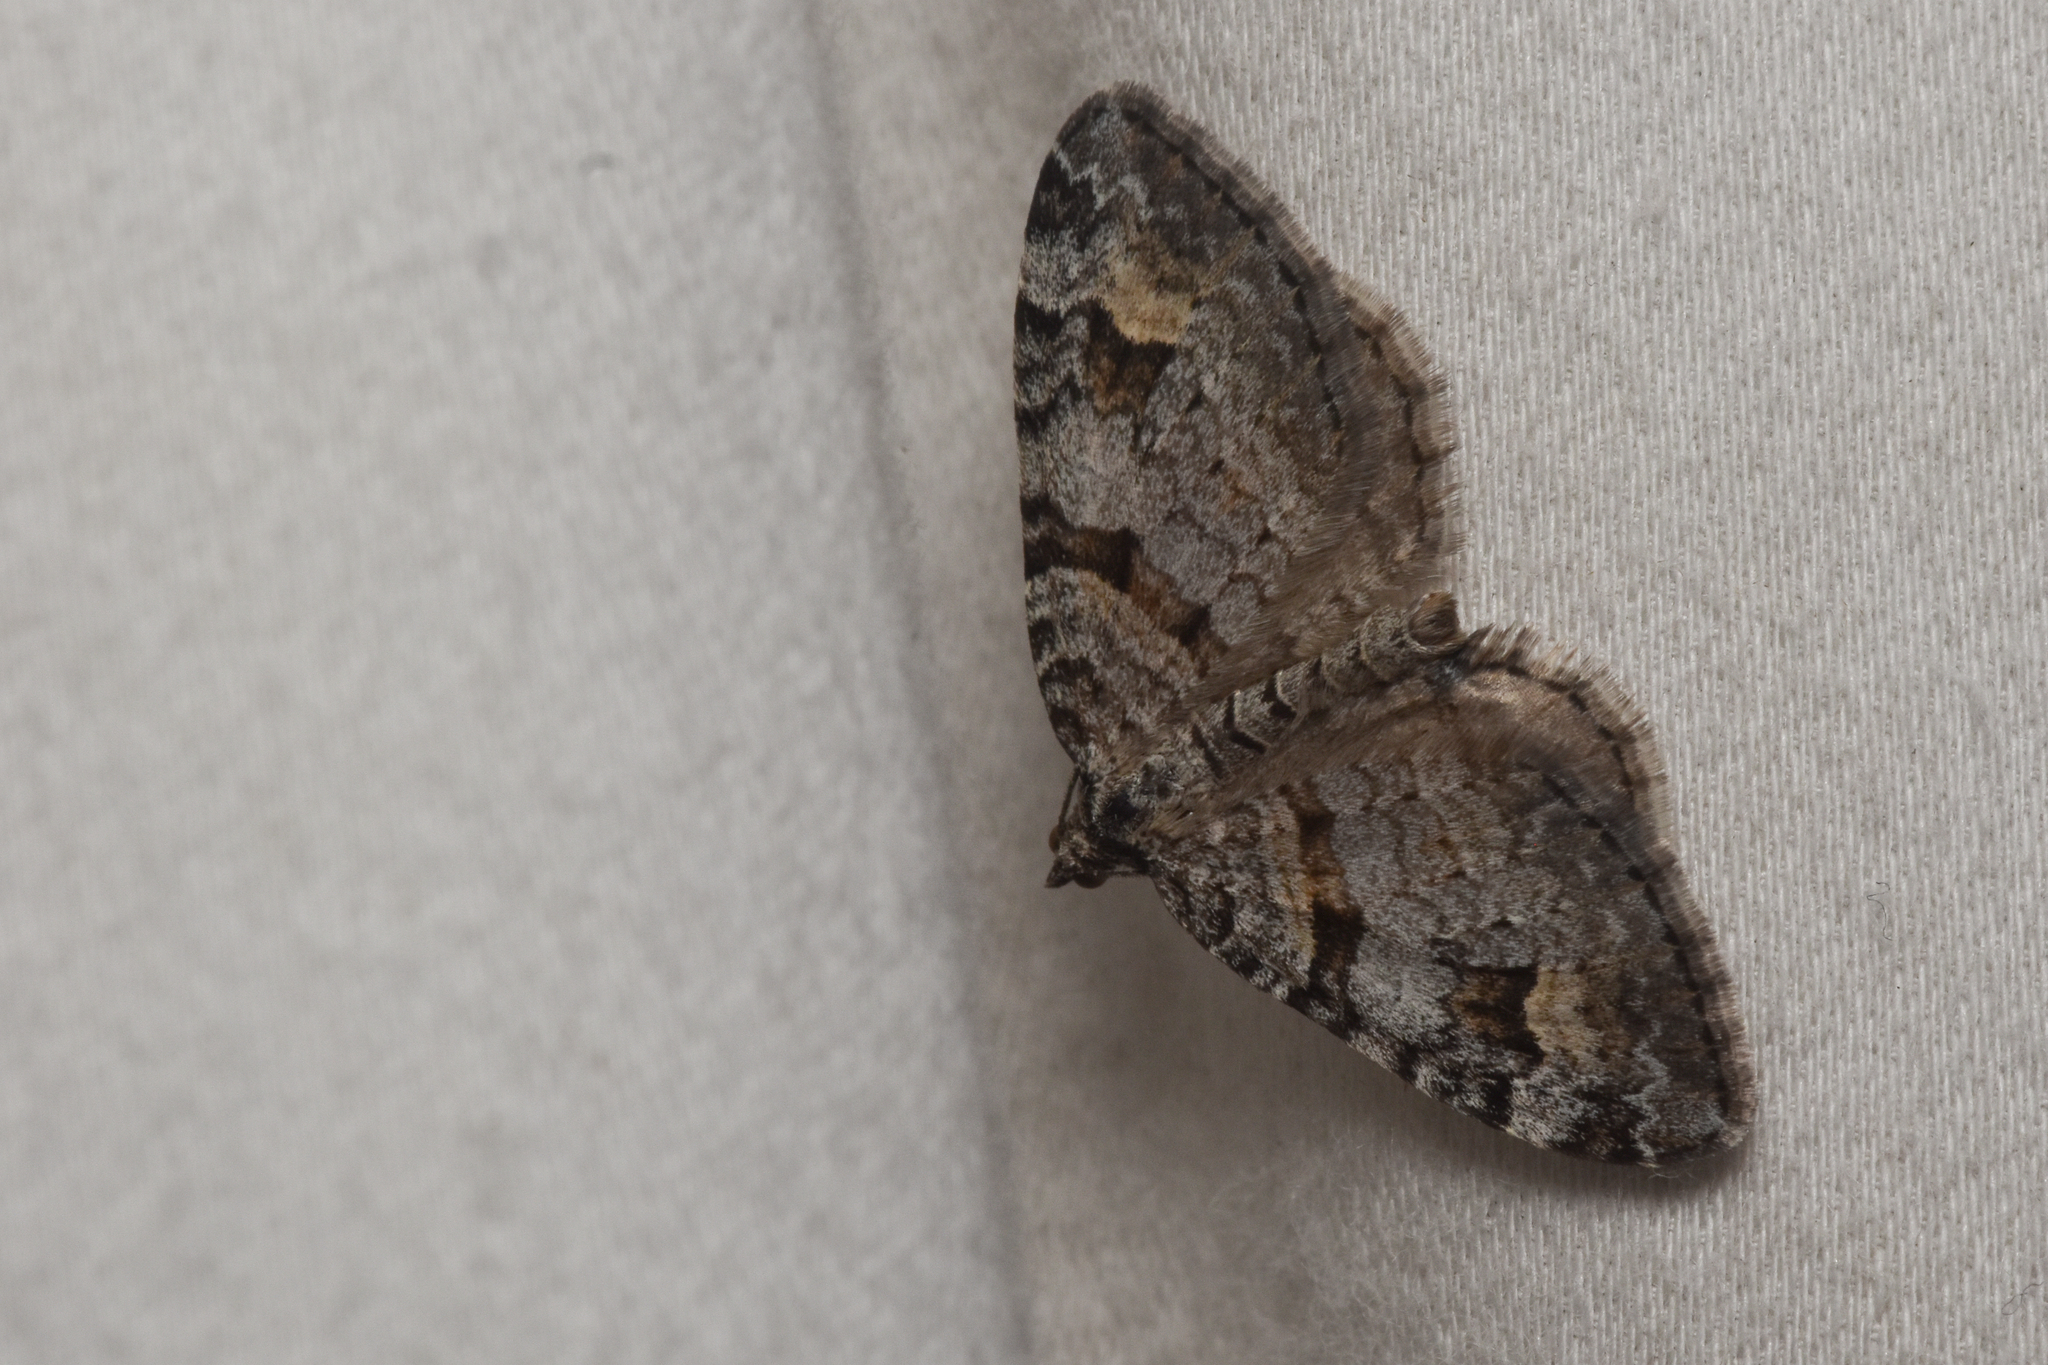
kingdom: Animalia
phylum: Arthropoda
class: Insecta
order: Lepidoptera
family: Geometridae
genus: Xanthorhoe
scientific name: Xanthorhoe abrasaria
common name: Northern carpet
